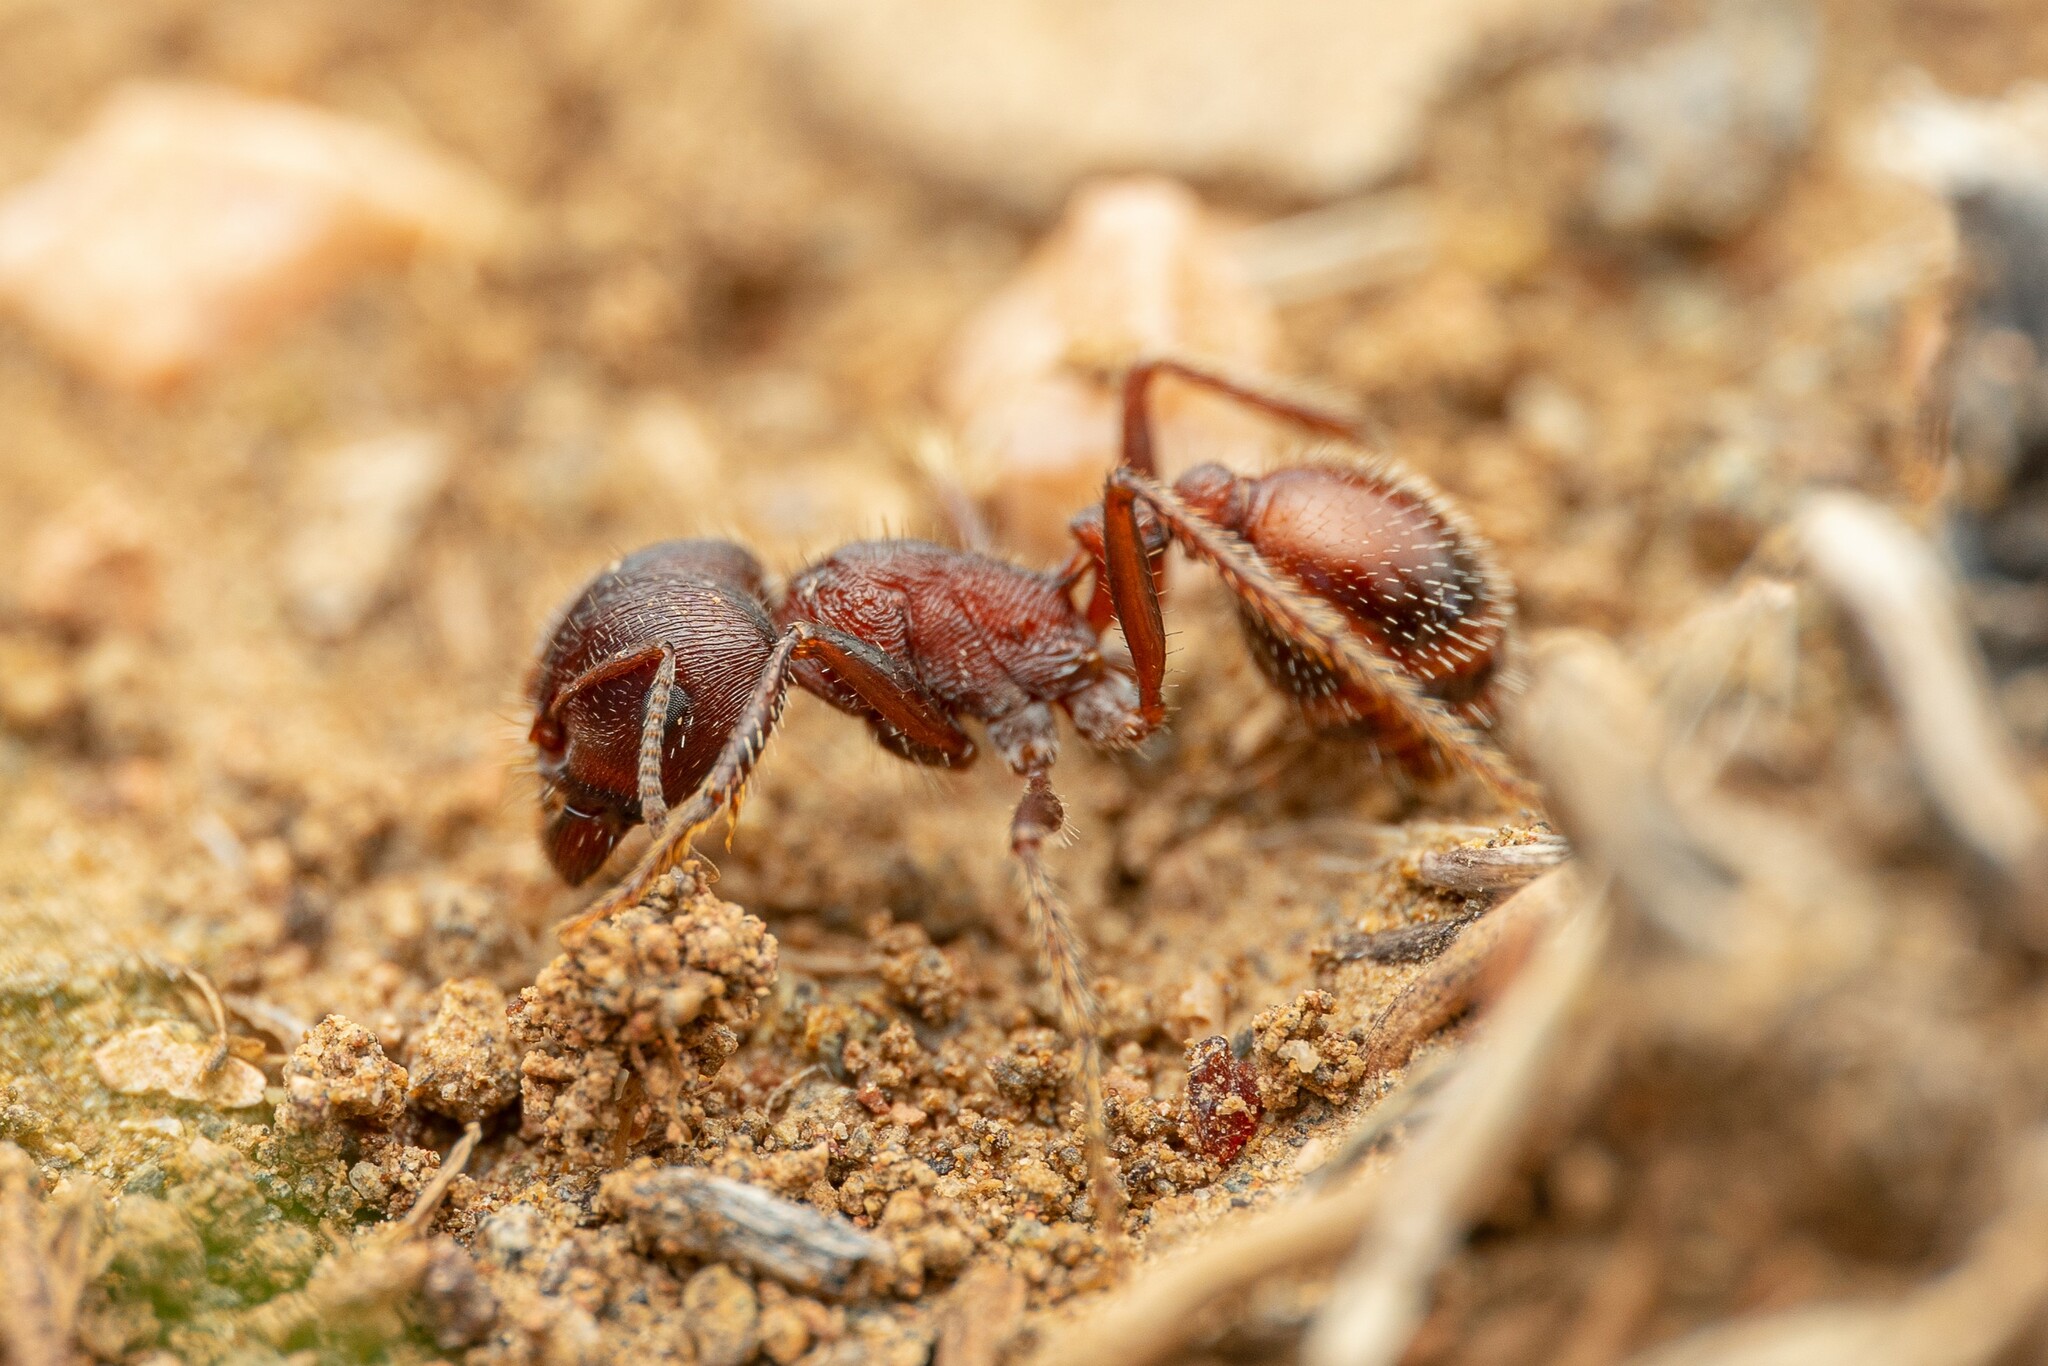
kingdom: Animalia
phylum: Arthropoda
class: Insecta
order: Hymenoptera
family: Formicidae
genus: Pogonomyrmex
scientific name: Pogonomyrmex rugosus
